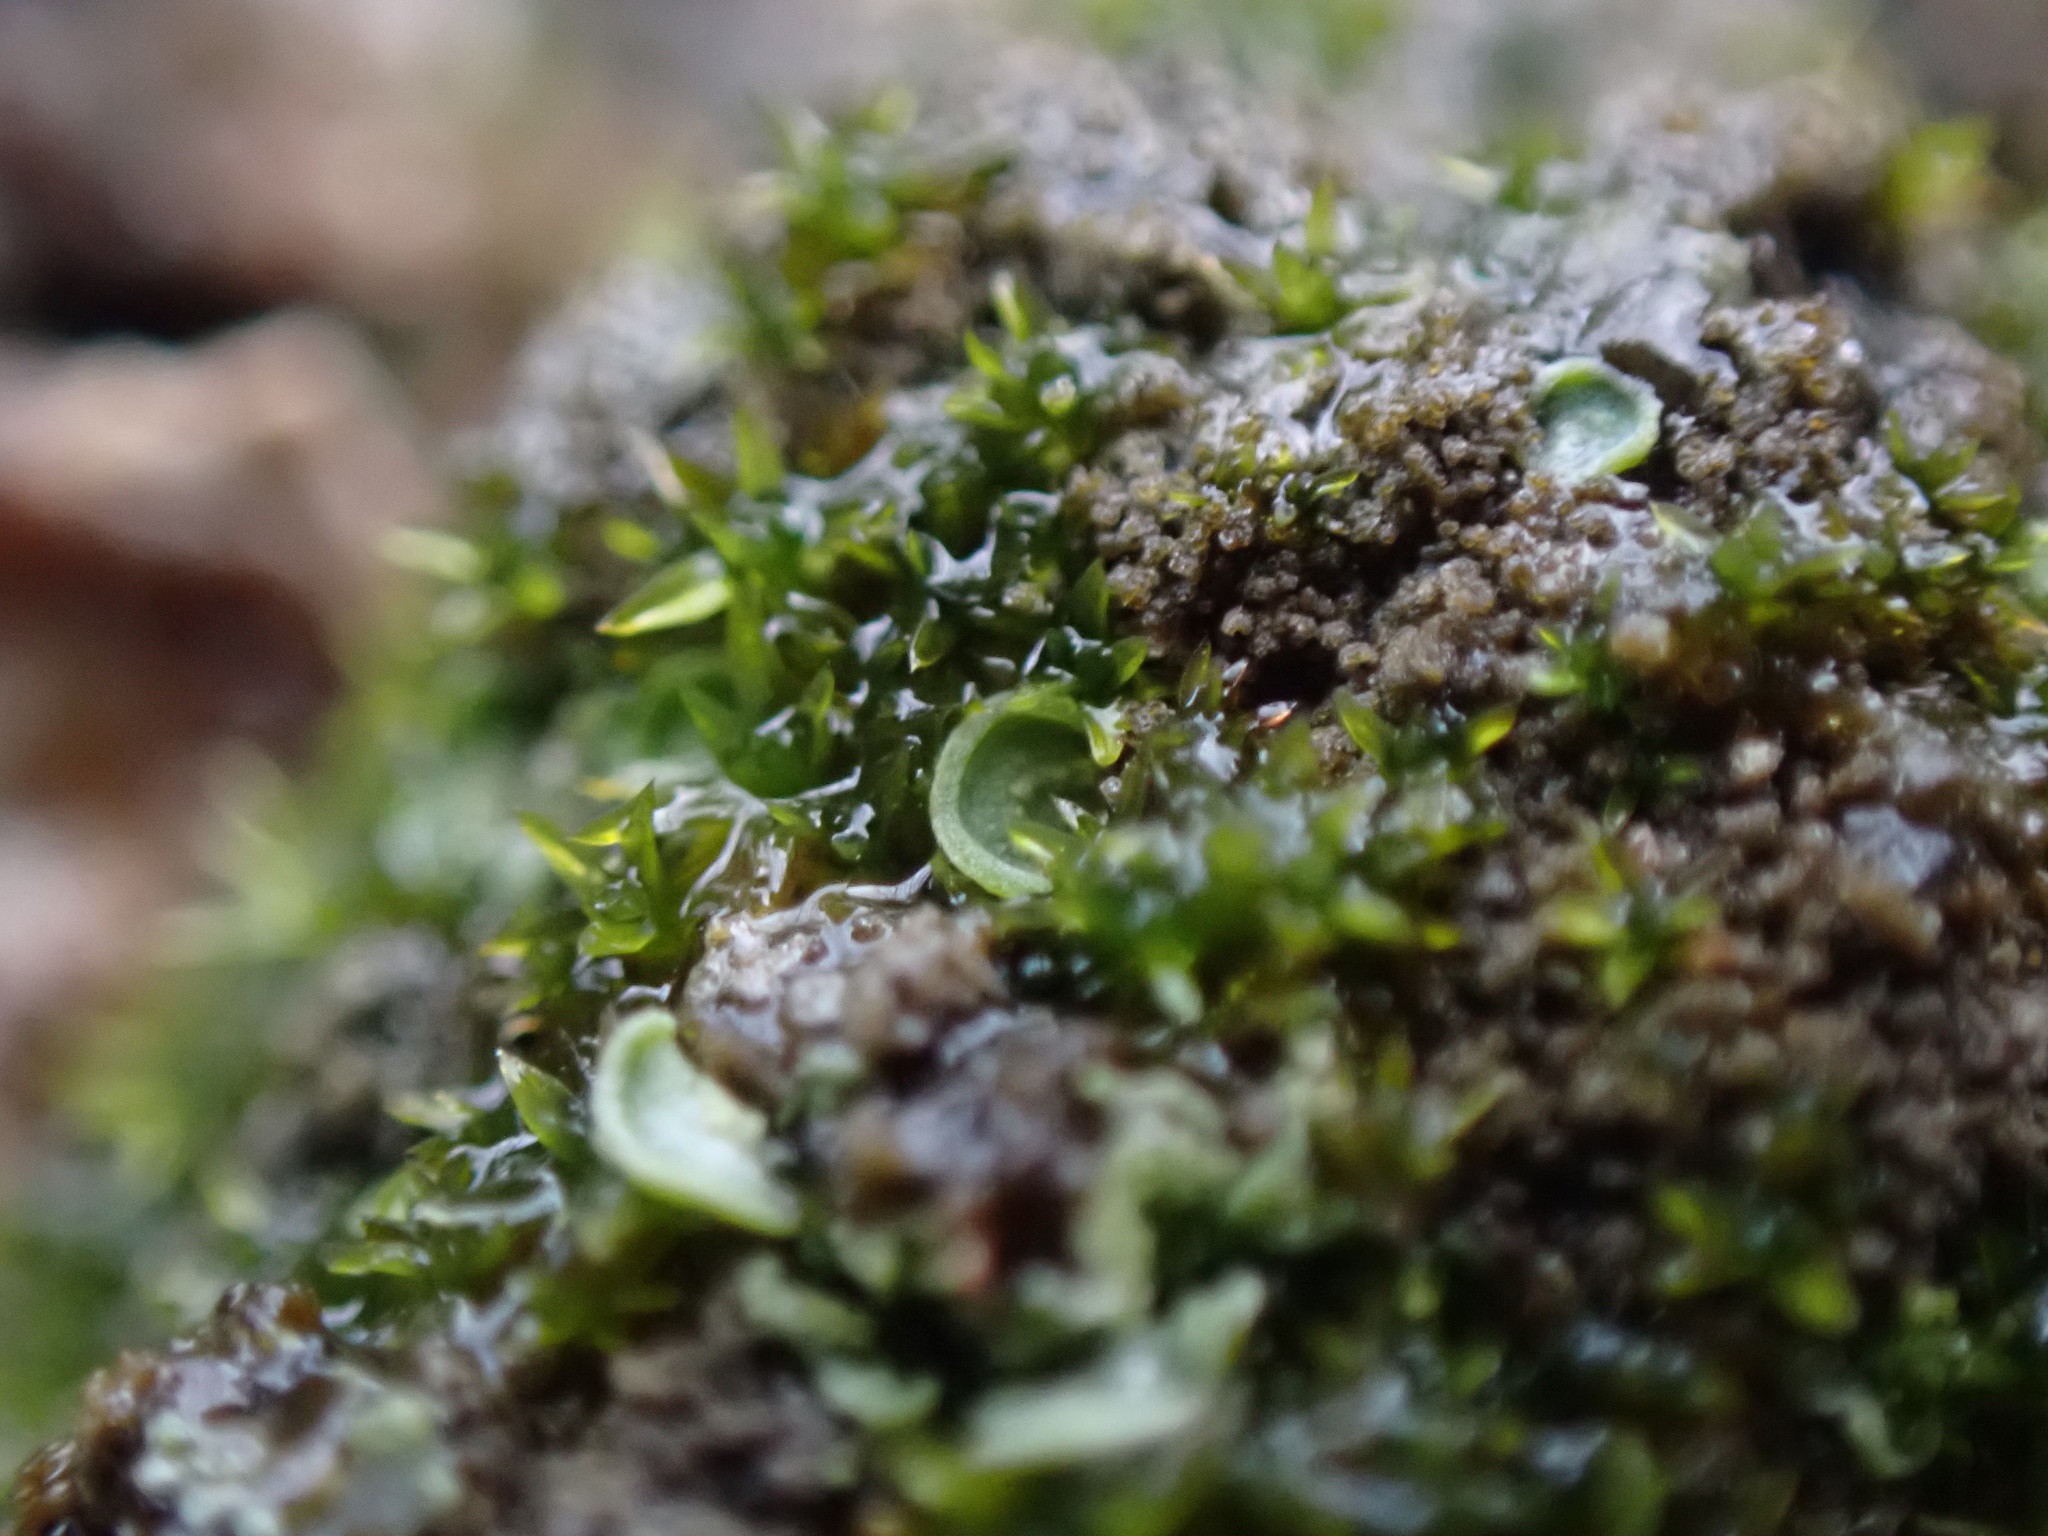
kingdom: Fungi
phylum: Ascomycota
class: Eurotiomycetes
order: Verrucariales
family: Verrucariaceae
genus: Normandina
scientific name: Normandina pulchella
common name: Elf ears lichen
